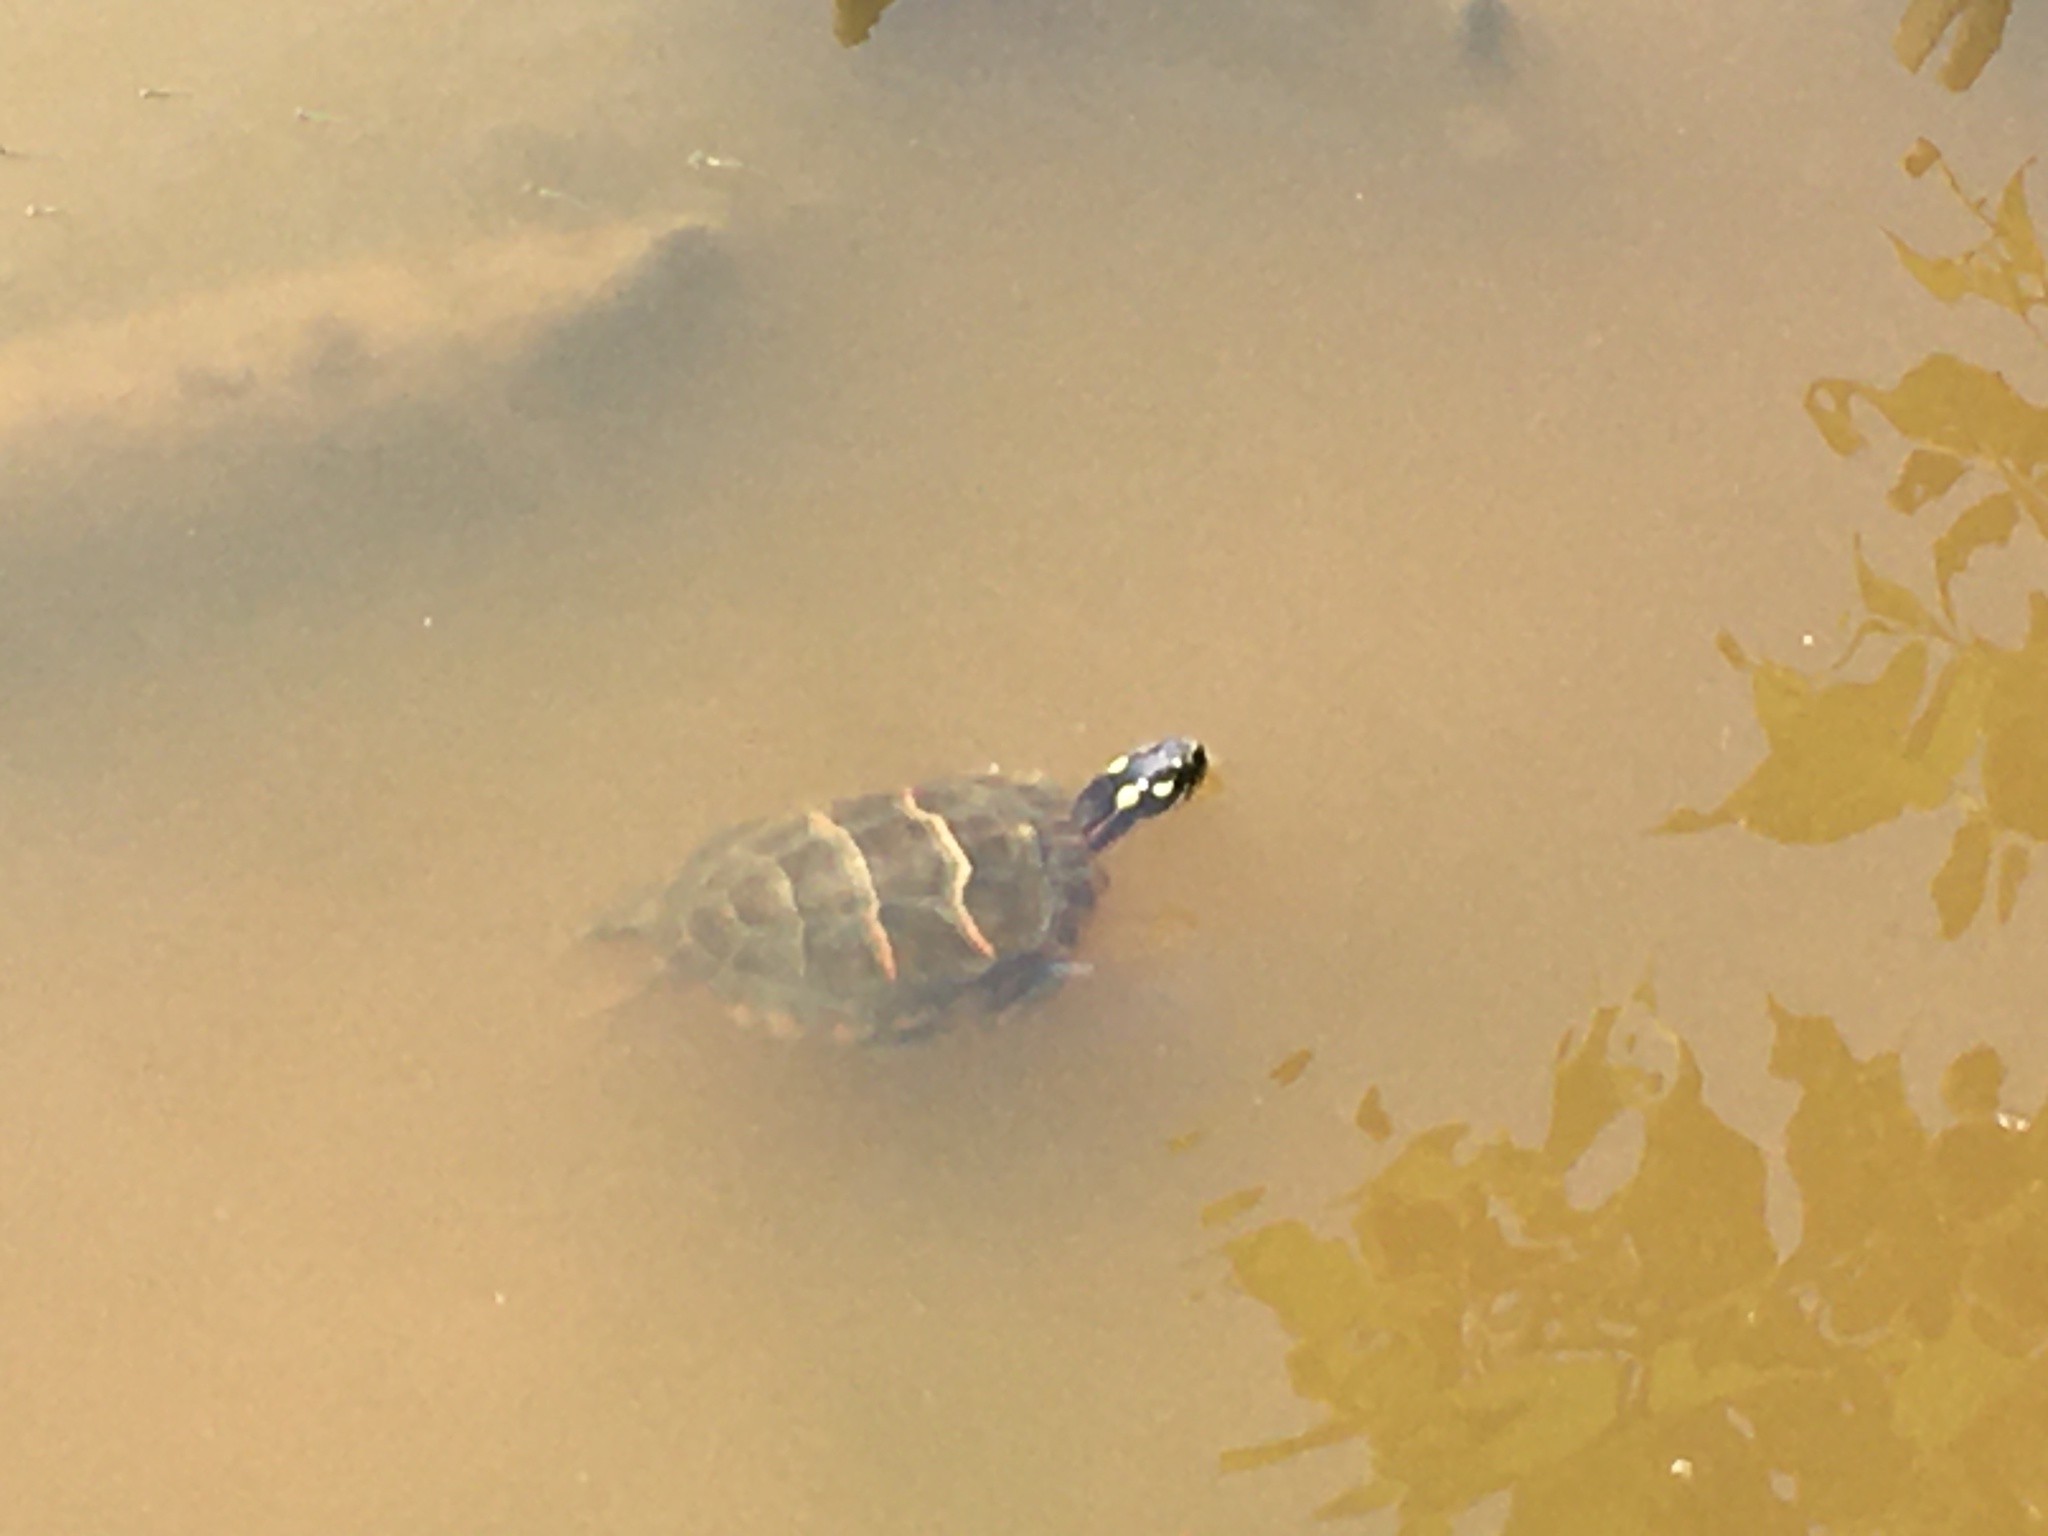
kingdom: Animalia
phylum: Chordata
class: Testudines
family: Emydidae
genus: Chrysemys
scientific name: Chrysemys picta
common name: Painted turtle
